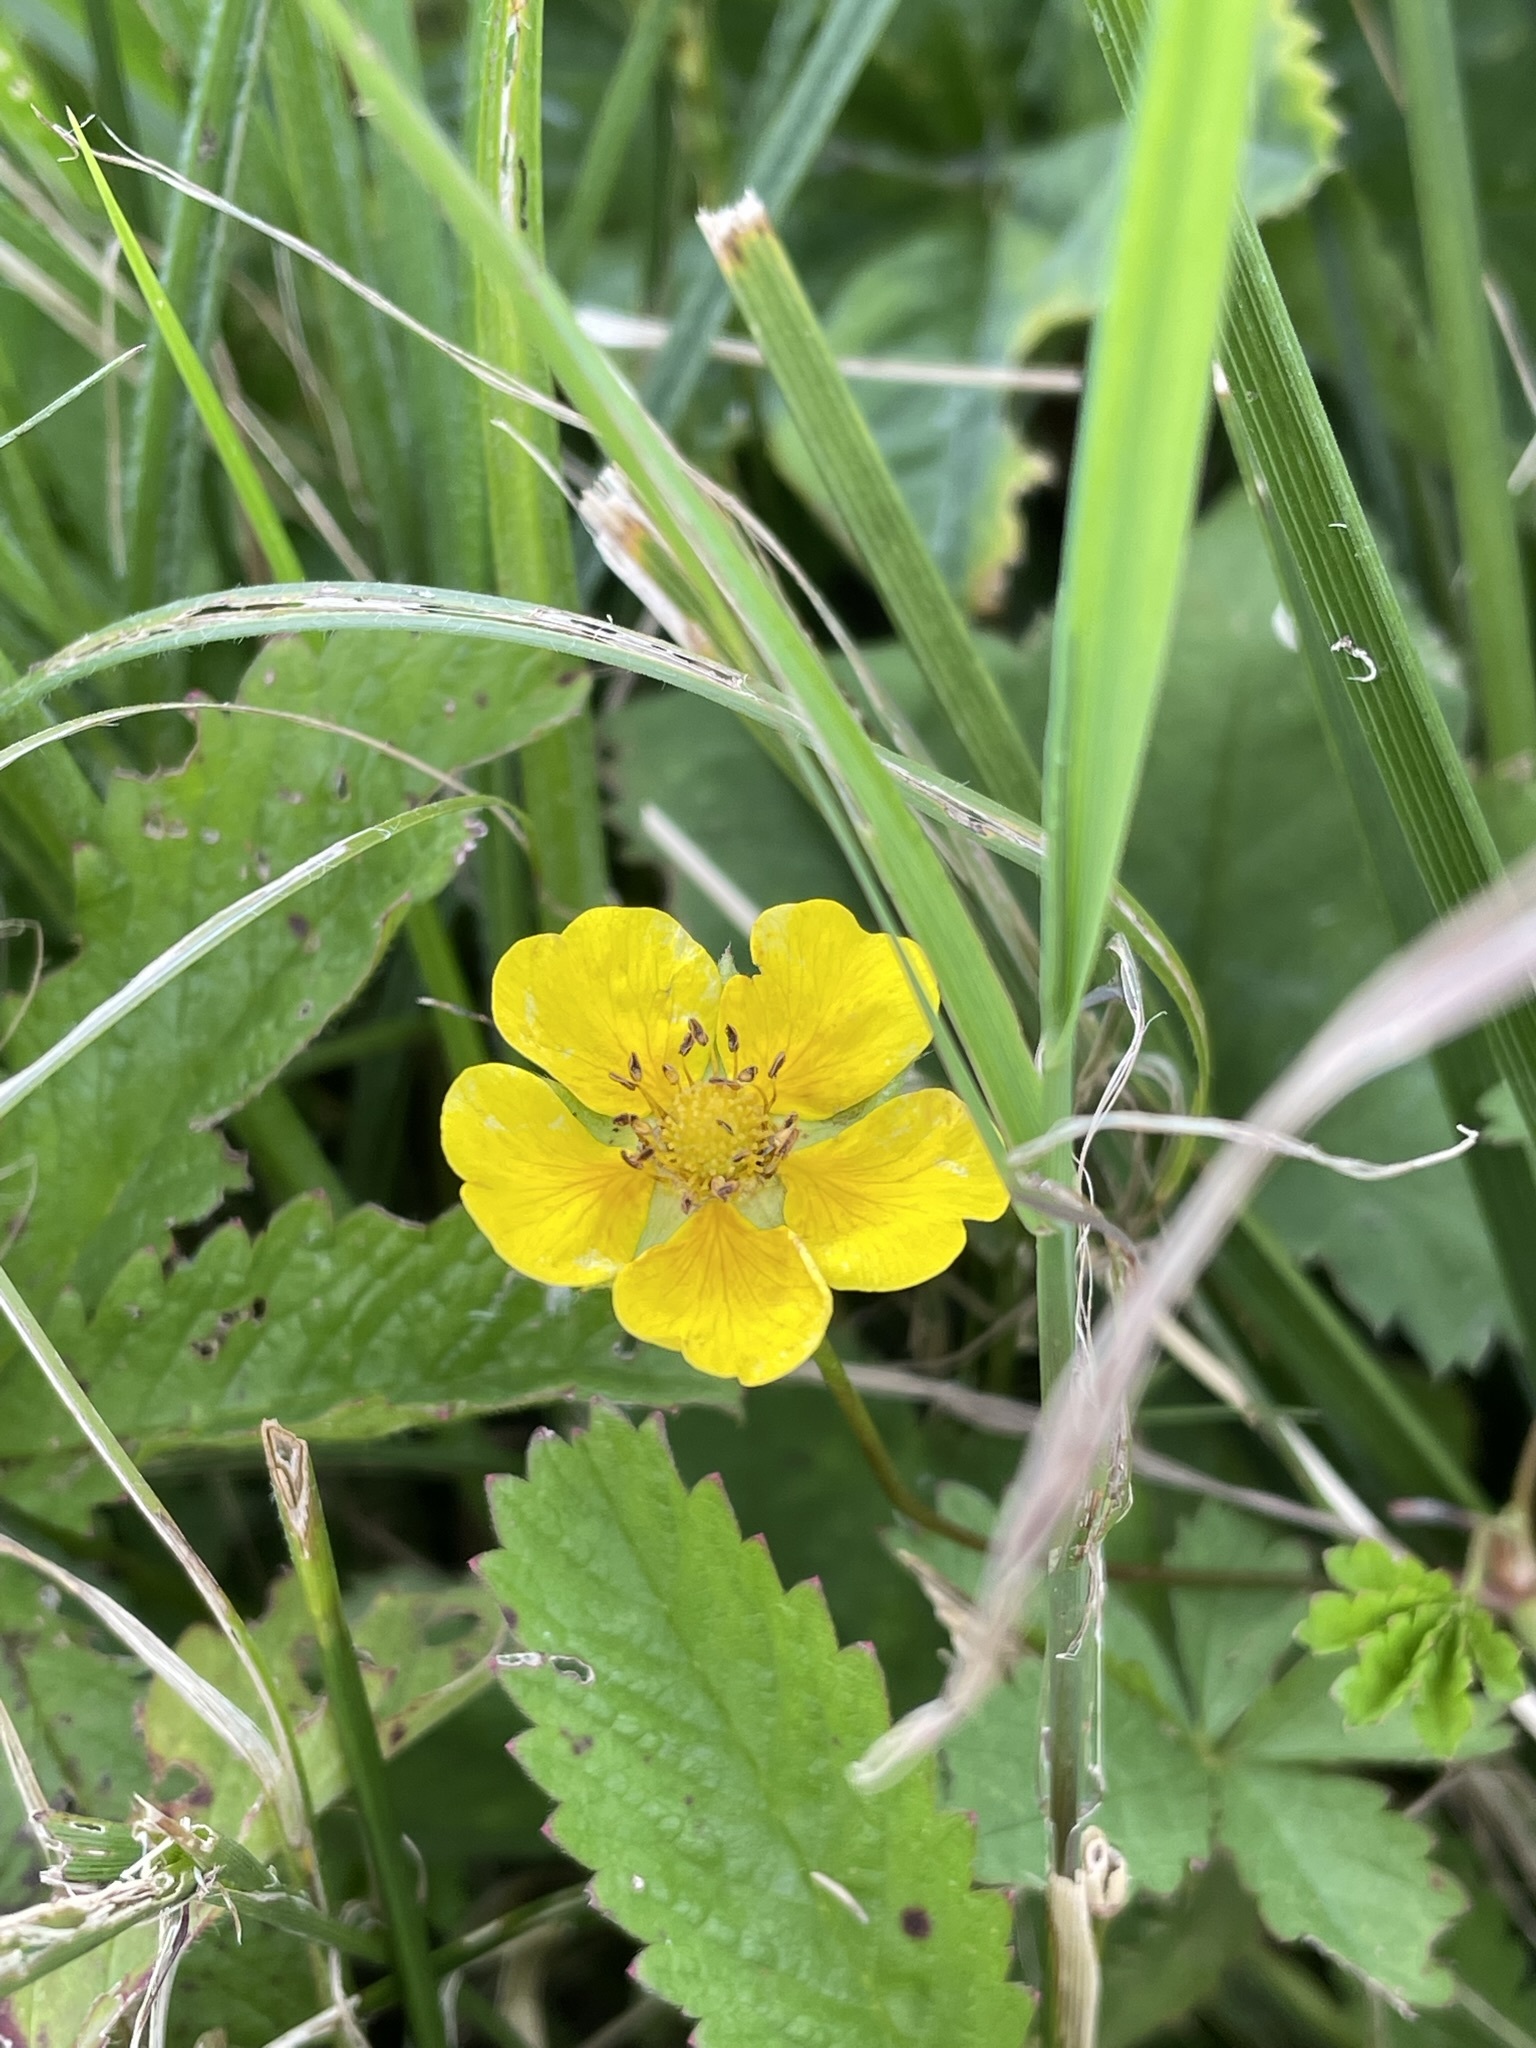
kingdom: Plantae
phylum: Tracheophyta
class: Magnoliopsida
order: Rosales
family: Rosaceae
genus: Potentilla
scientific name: Potentilla reptans
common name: Creeping cinquefoil
